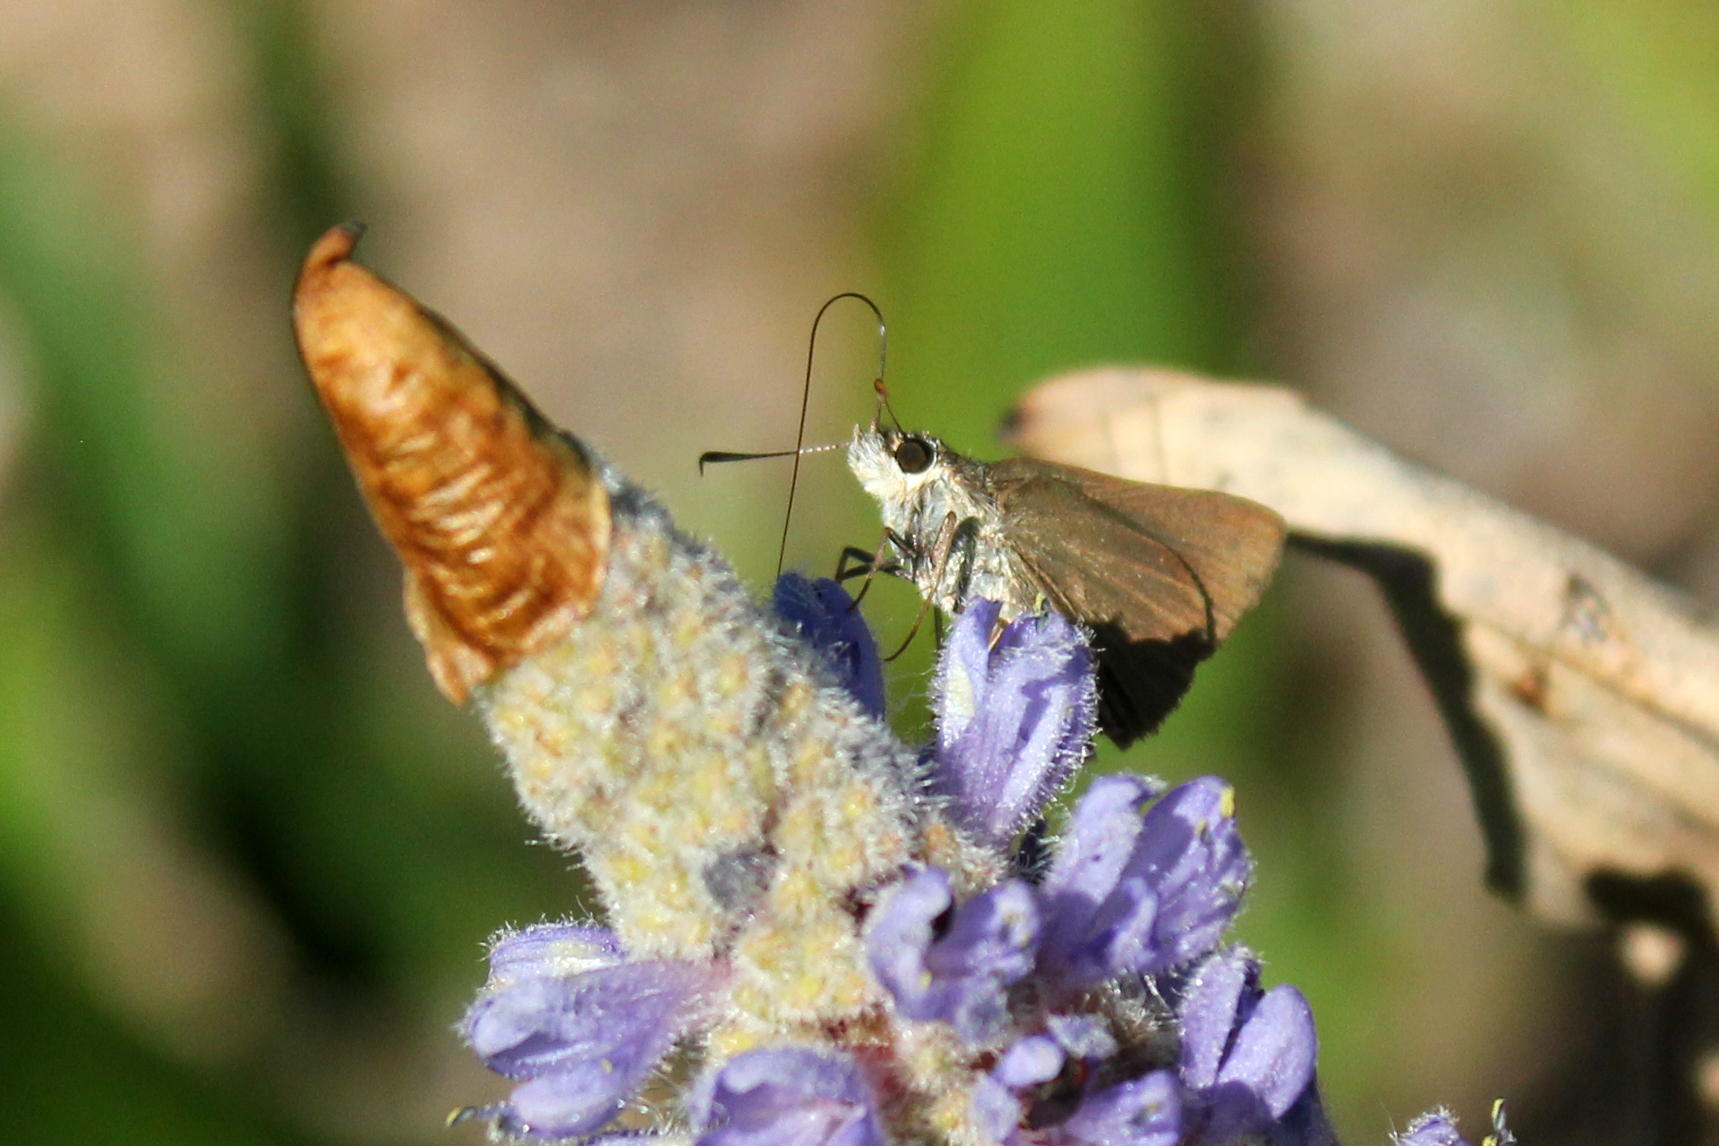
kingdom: Animalia
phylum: Arthropoda
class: Insecta
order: Lepidoptera
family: Hesperiidae
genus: Nastra
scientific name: Nastra lherminier
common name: Swarthy skipper
